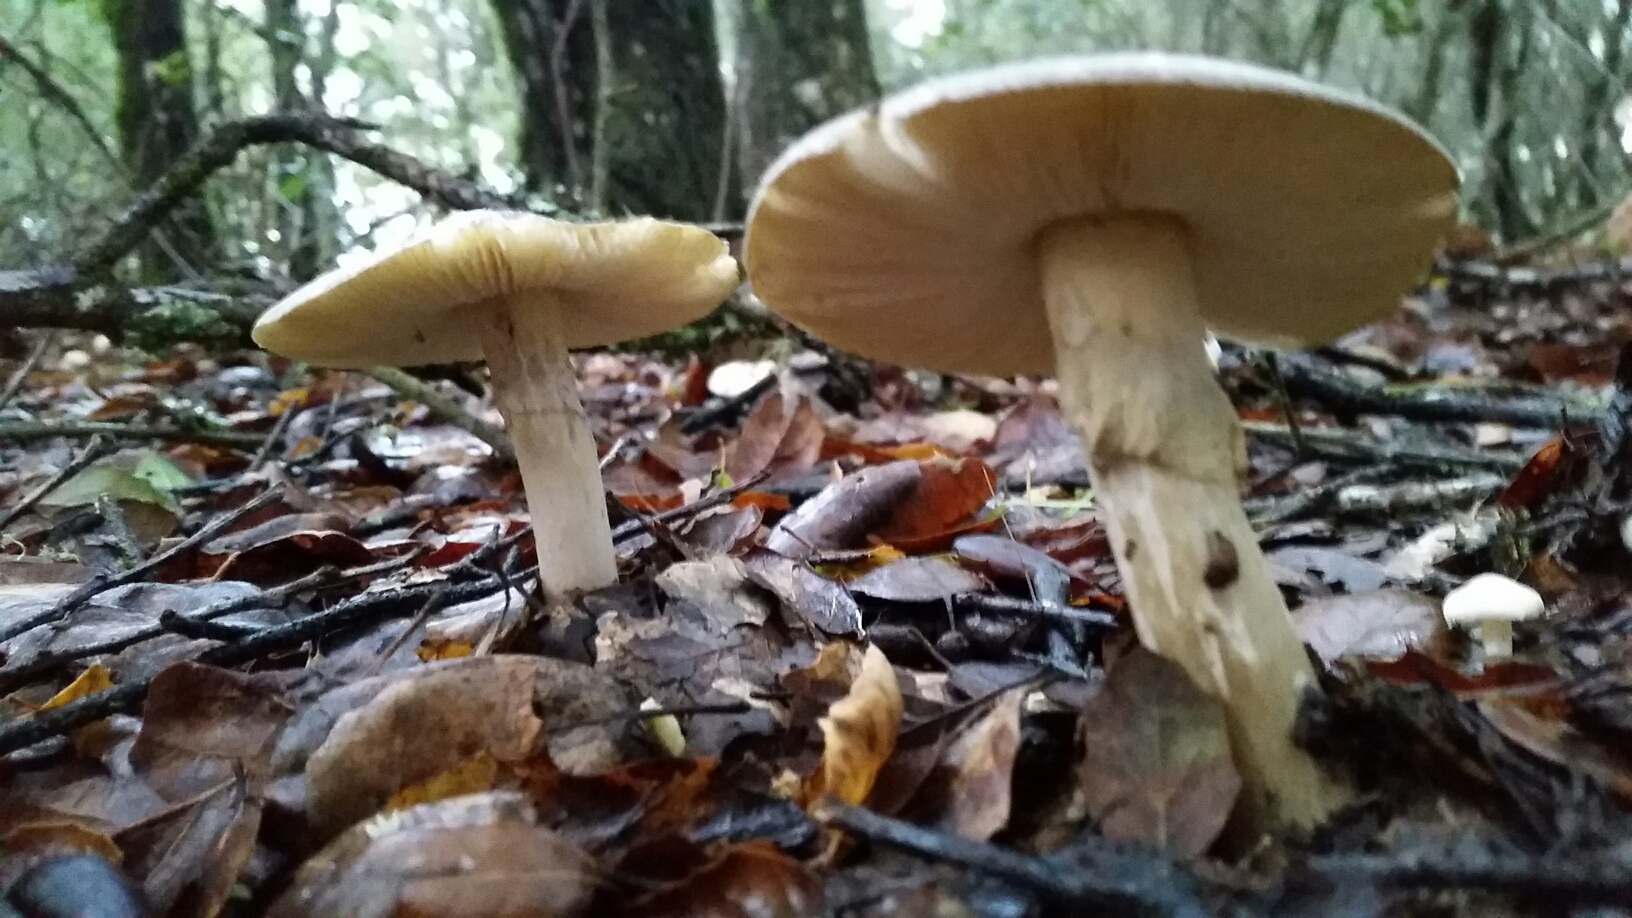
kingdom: Fungi
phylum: Basidiomycota
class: Agaricomycetes
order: Agaricales
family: Amanitaceae
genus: Amanita
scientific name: Amanita phalloides
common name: Death cap
